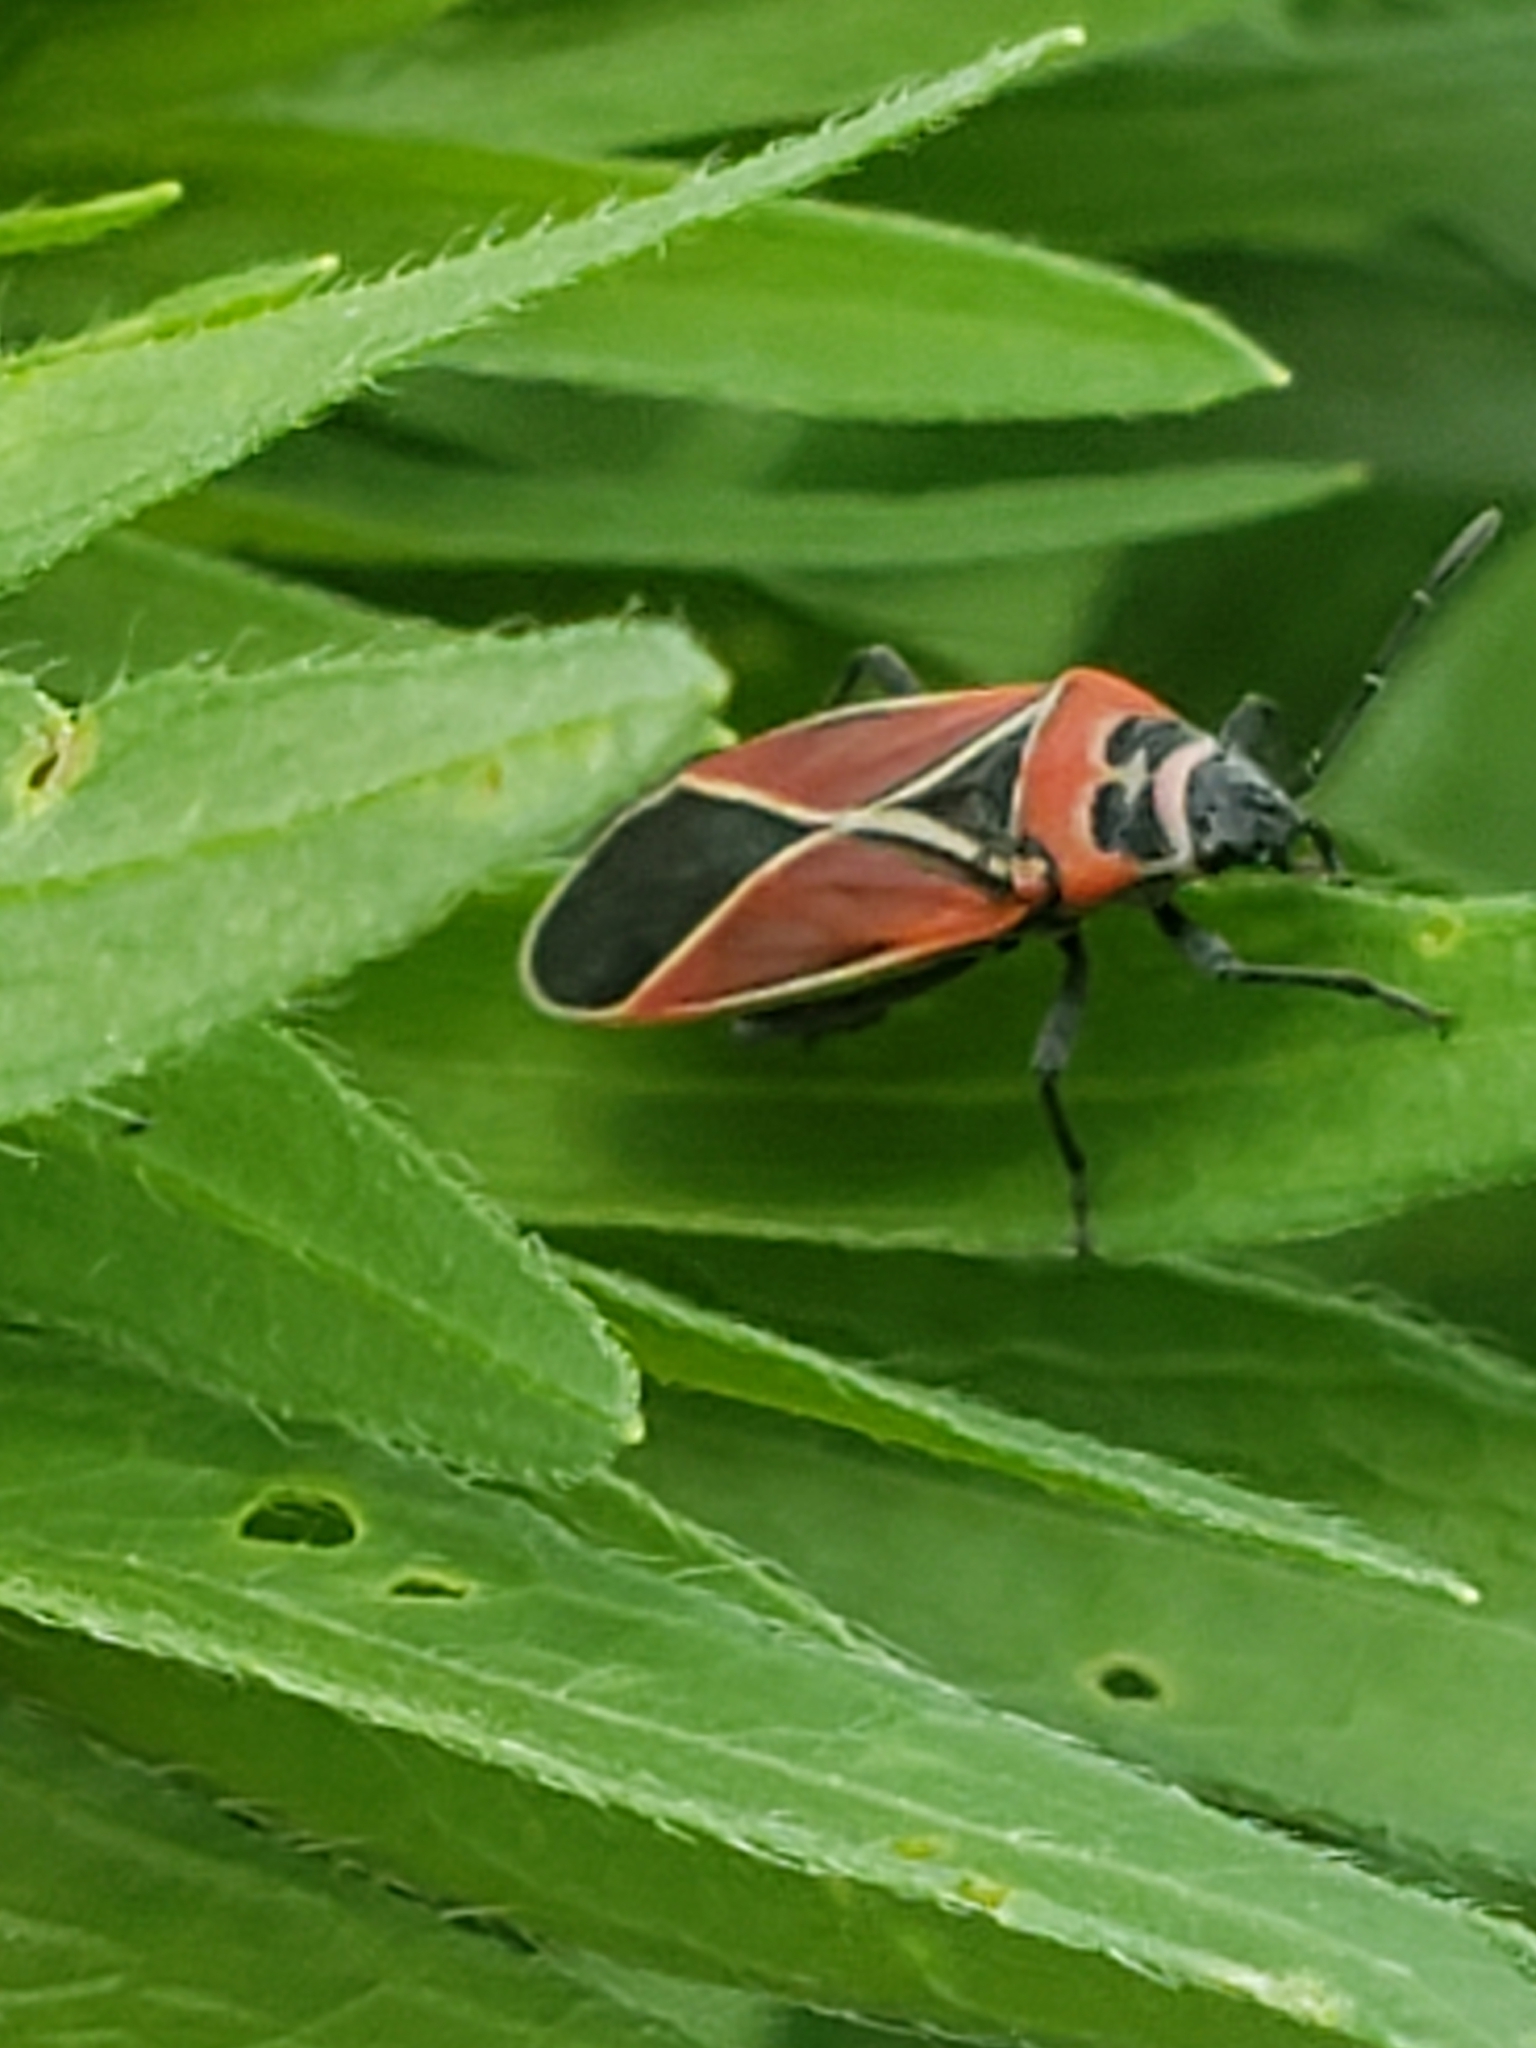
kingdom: Animalia
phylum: Arthropoda
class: Insecta
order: Hemiptera
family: Lygaeidae
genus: Neacoryphus
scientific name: Neacoryphus bicrucis
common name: Lygaeid bug
